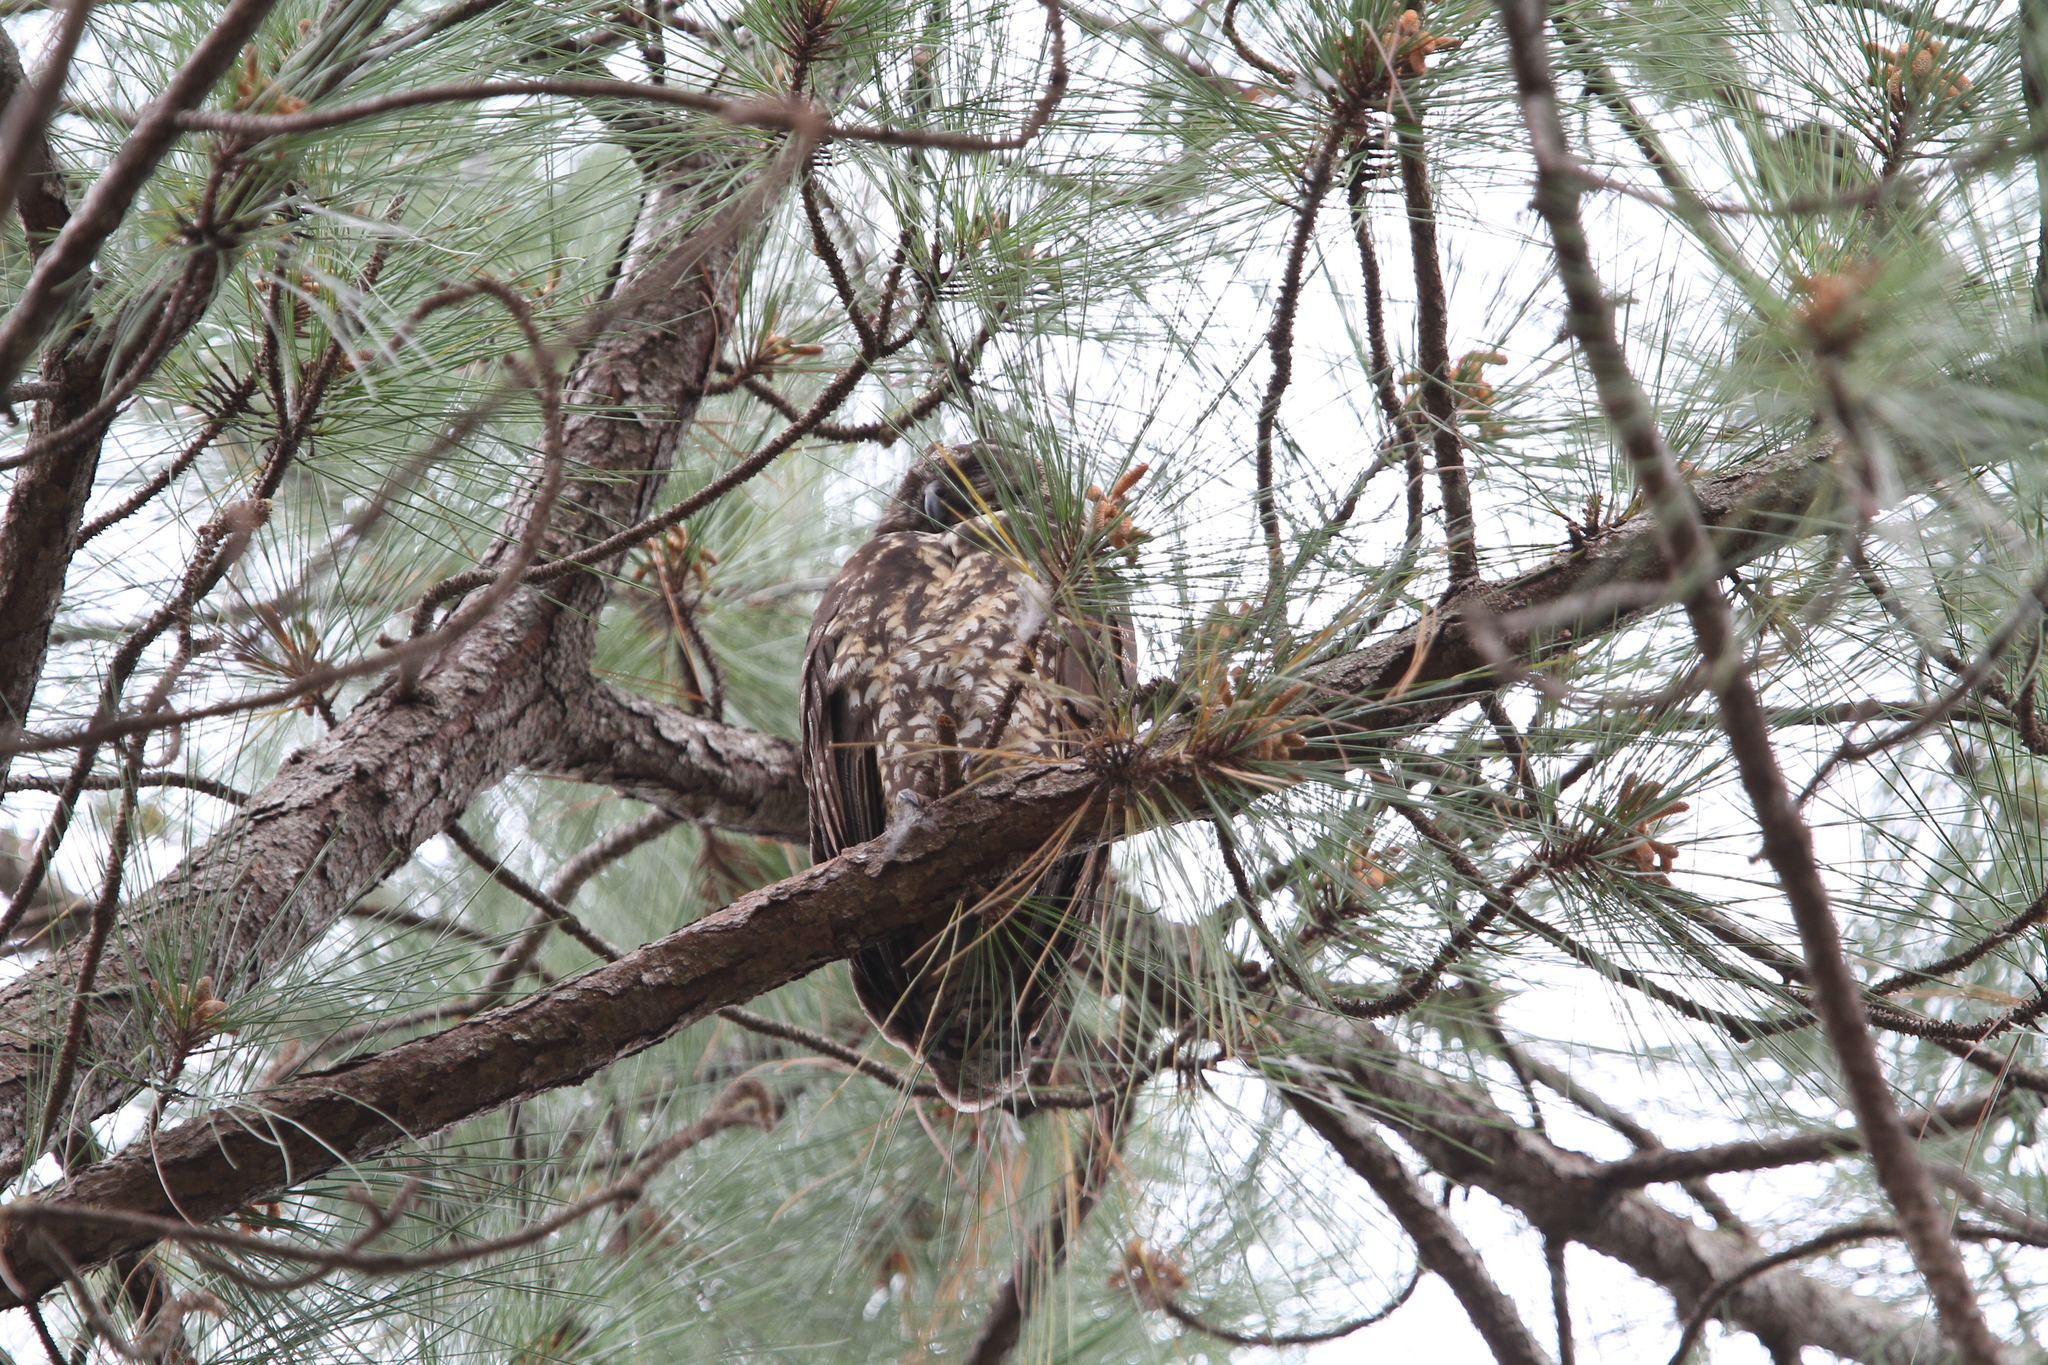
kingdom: Animalia
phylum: Chordata
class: Aves
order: Strigiformes
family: Strigidae
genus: Asio
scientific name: Asio stygius
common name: Stygian owl
